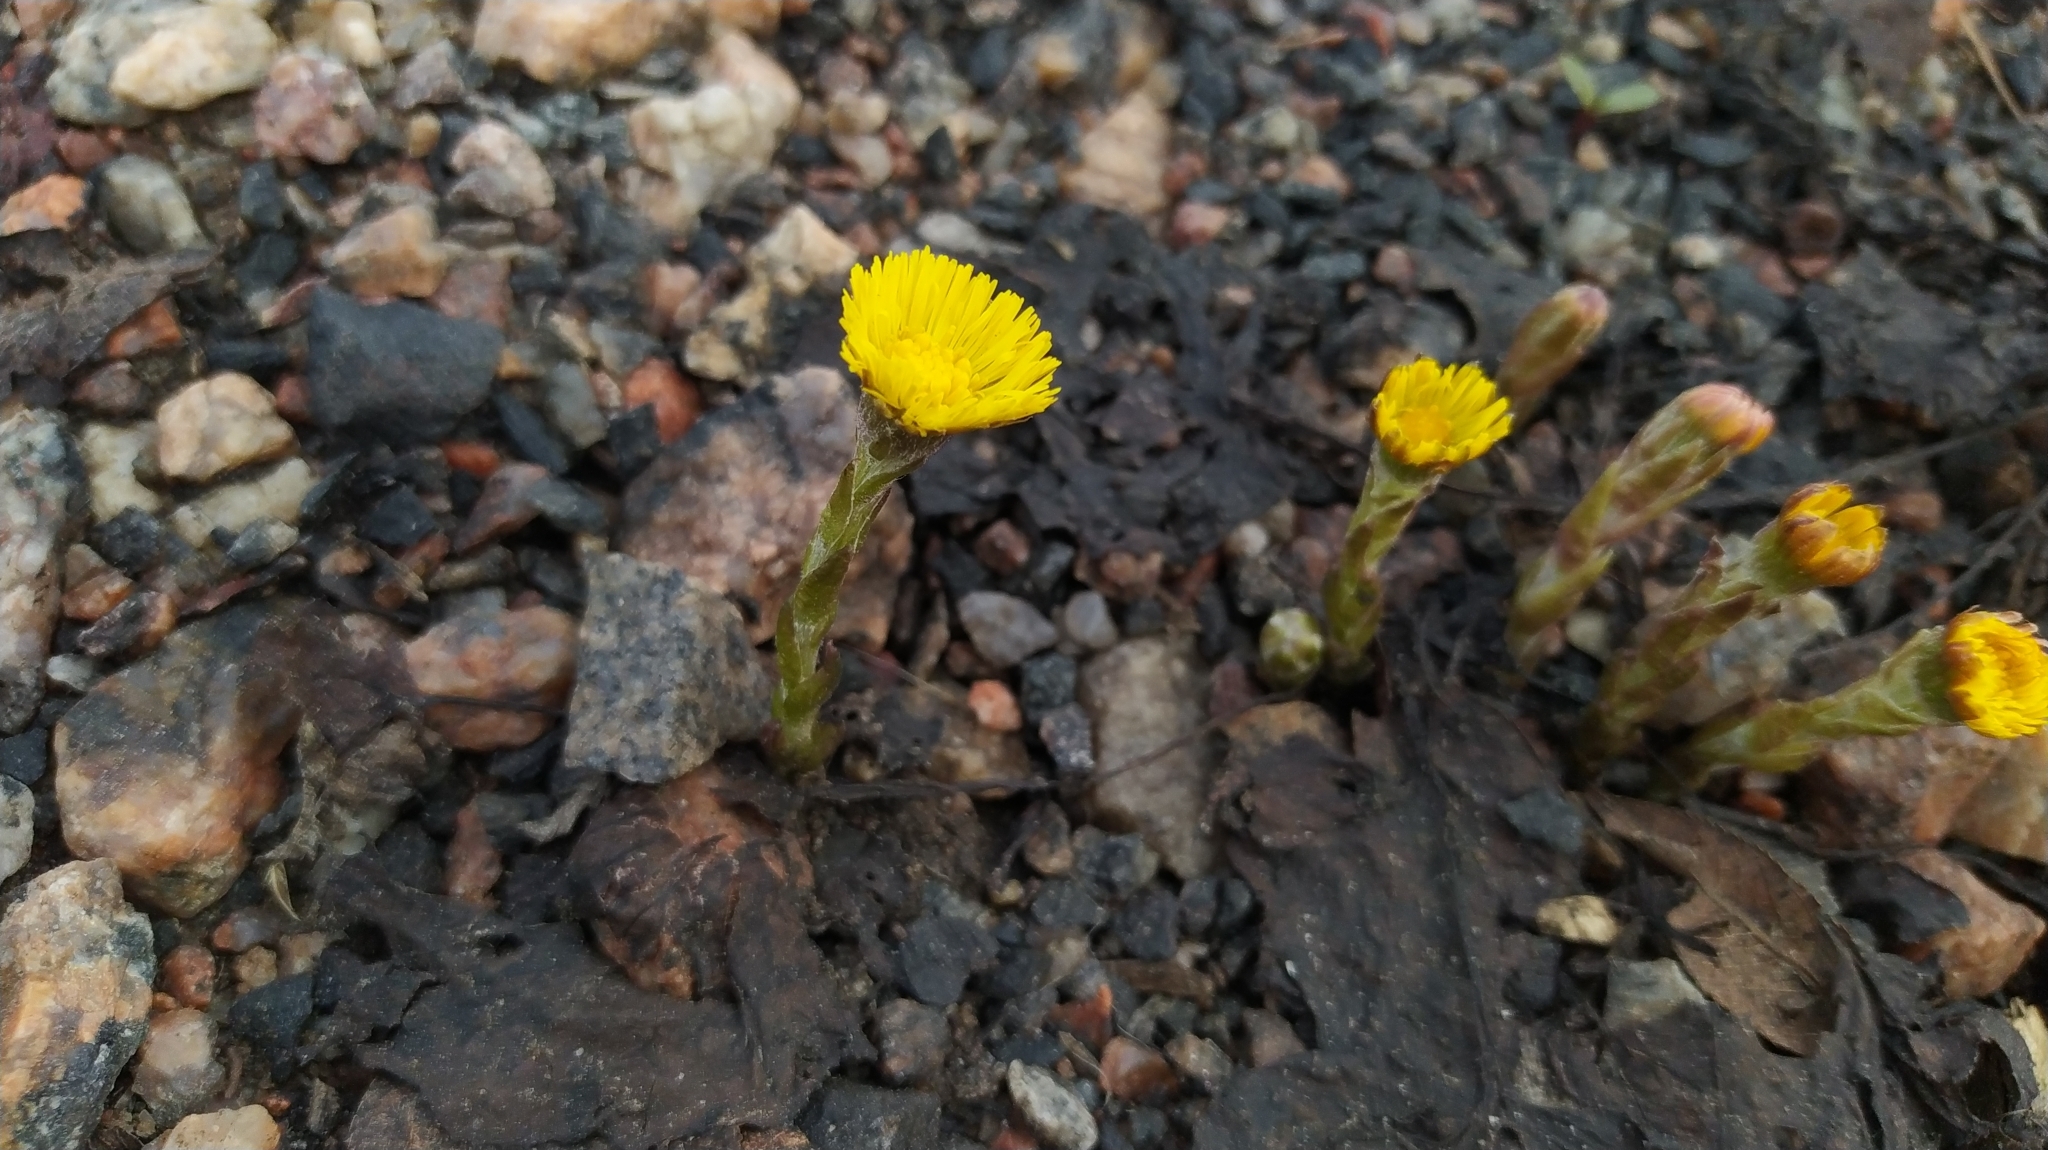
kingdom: Plantae
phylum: Tracheophyta
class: Magnoliopsida
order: Asterales
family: Asteraceae
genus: Tussilago
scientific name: Tussilago farfara
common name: Coltsfoot
